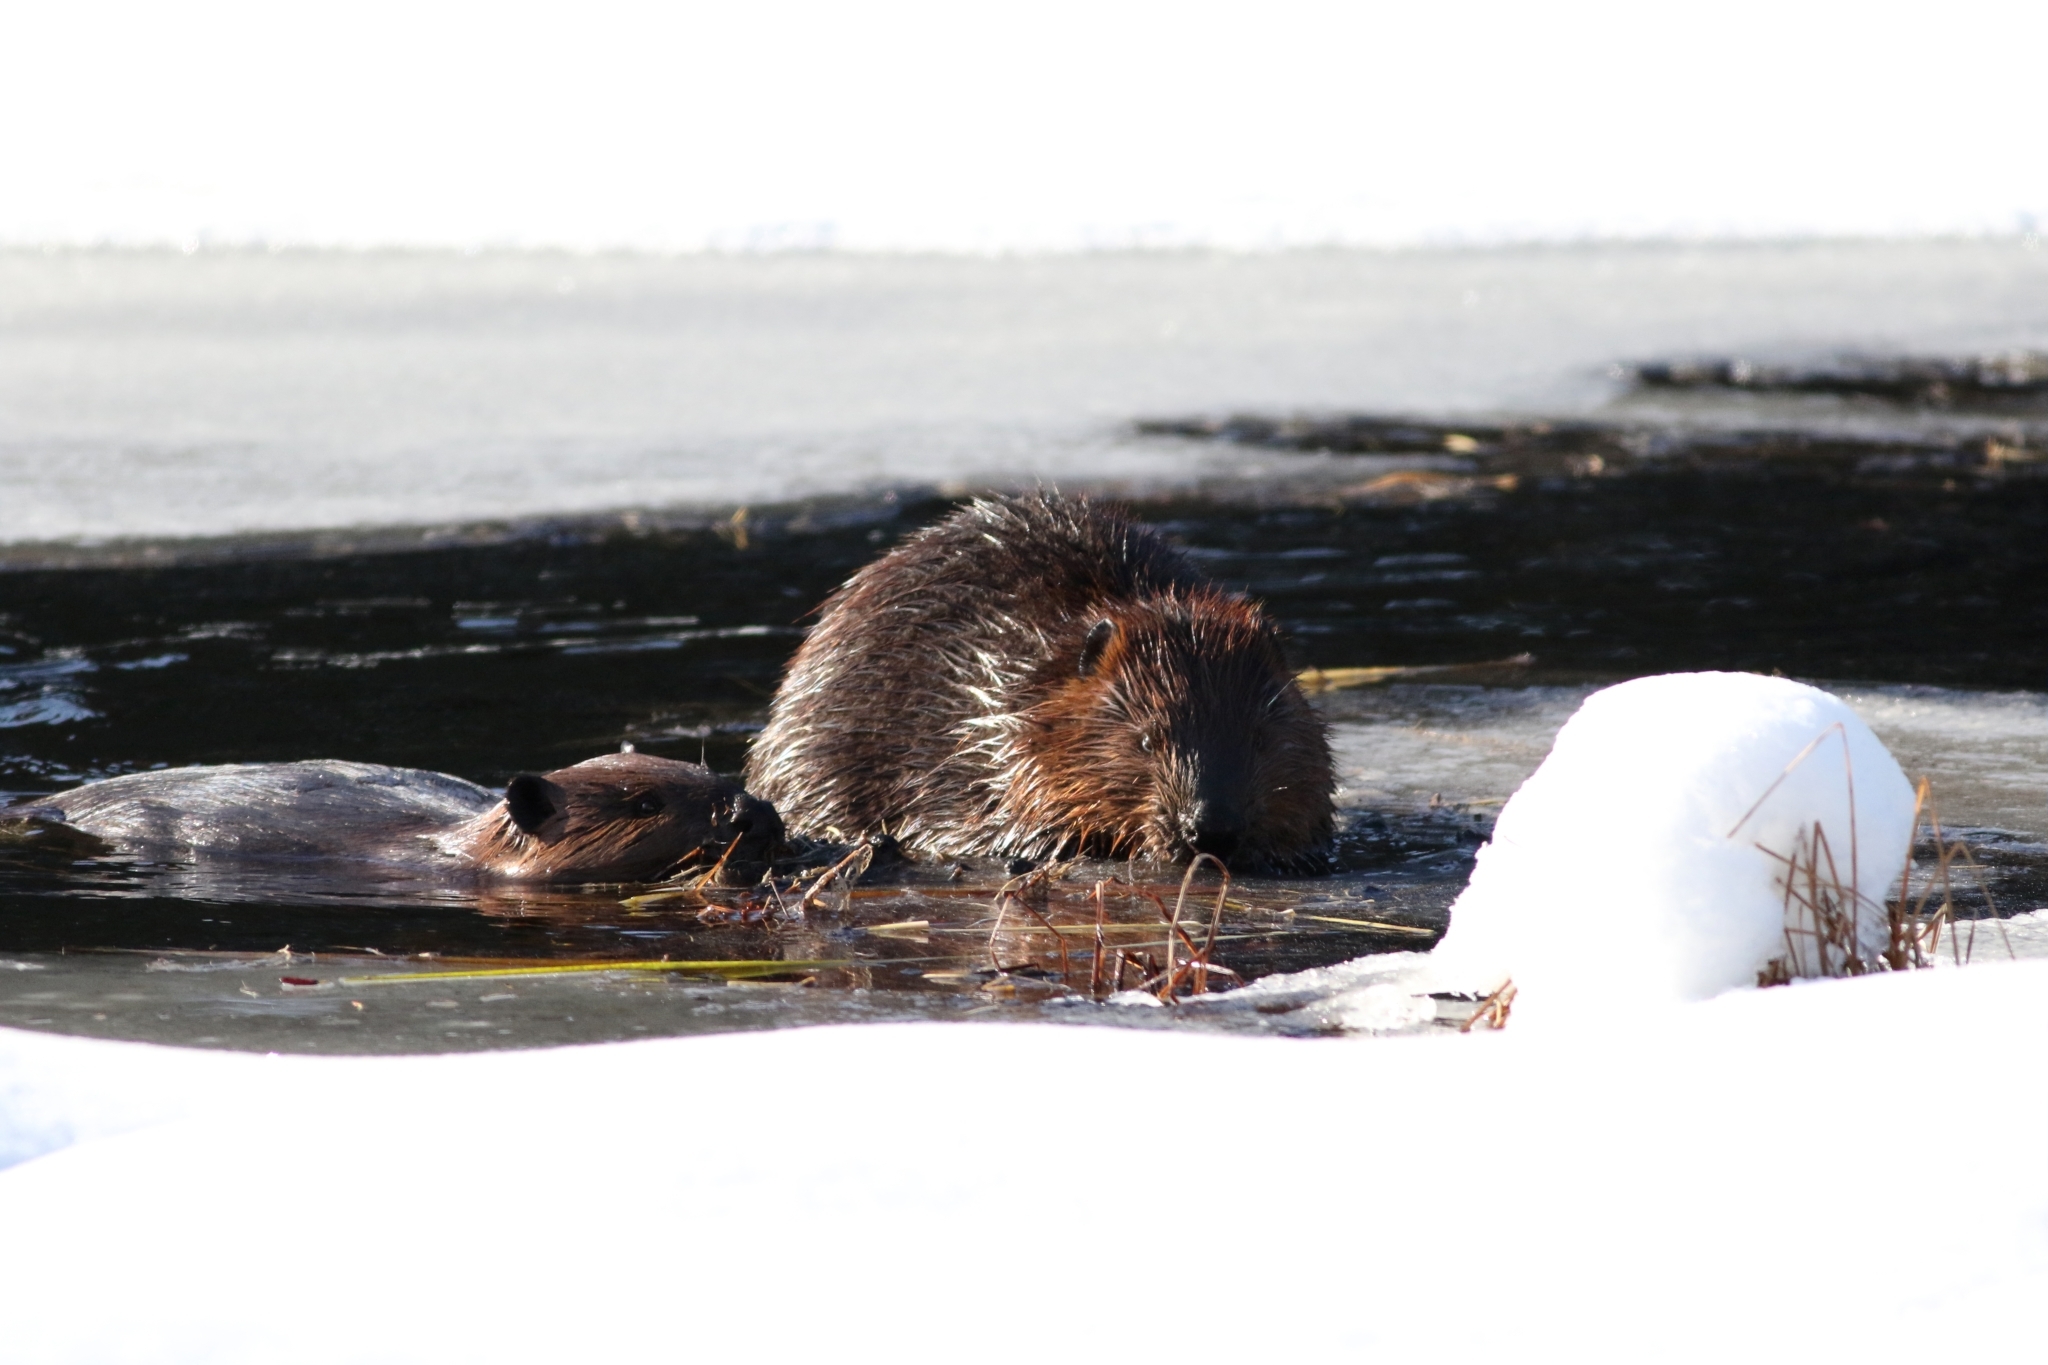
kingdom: Animalia
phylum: Chordata
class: Mammalia
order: Rodentia
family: Castoridae
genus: Castor
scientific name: Castor canadensis
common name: American beaver
